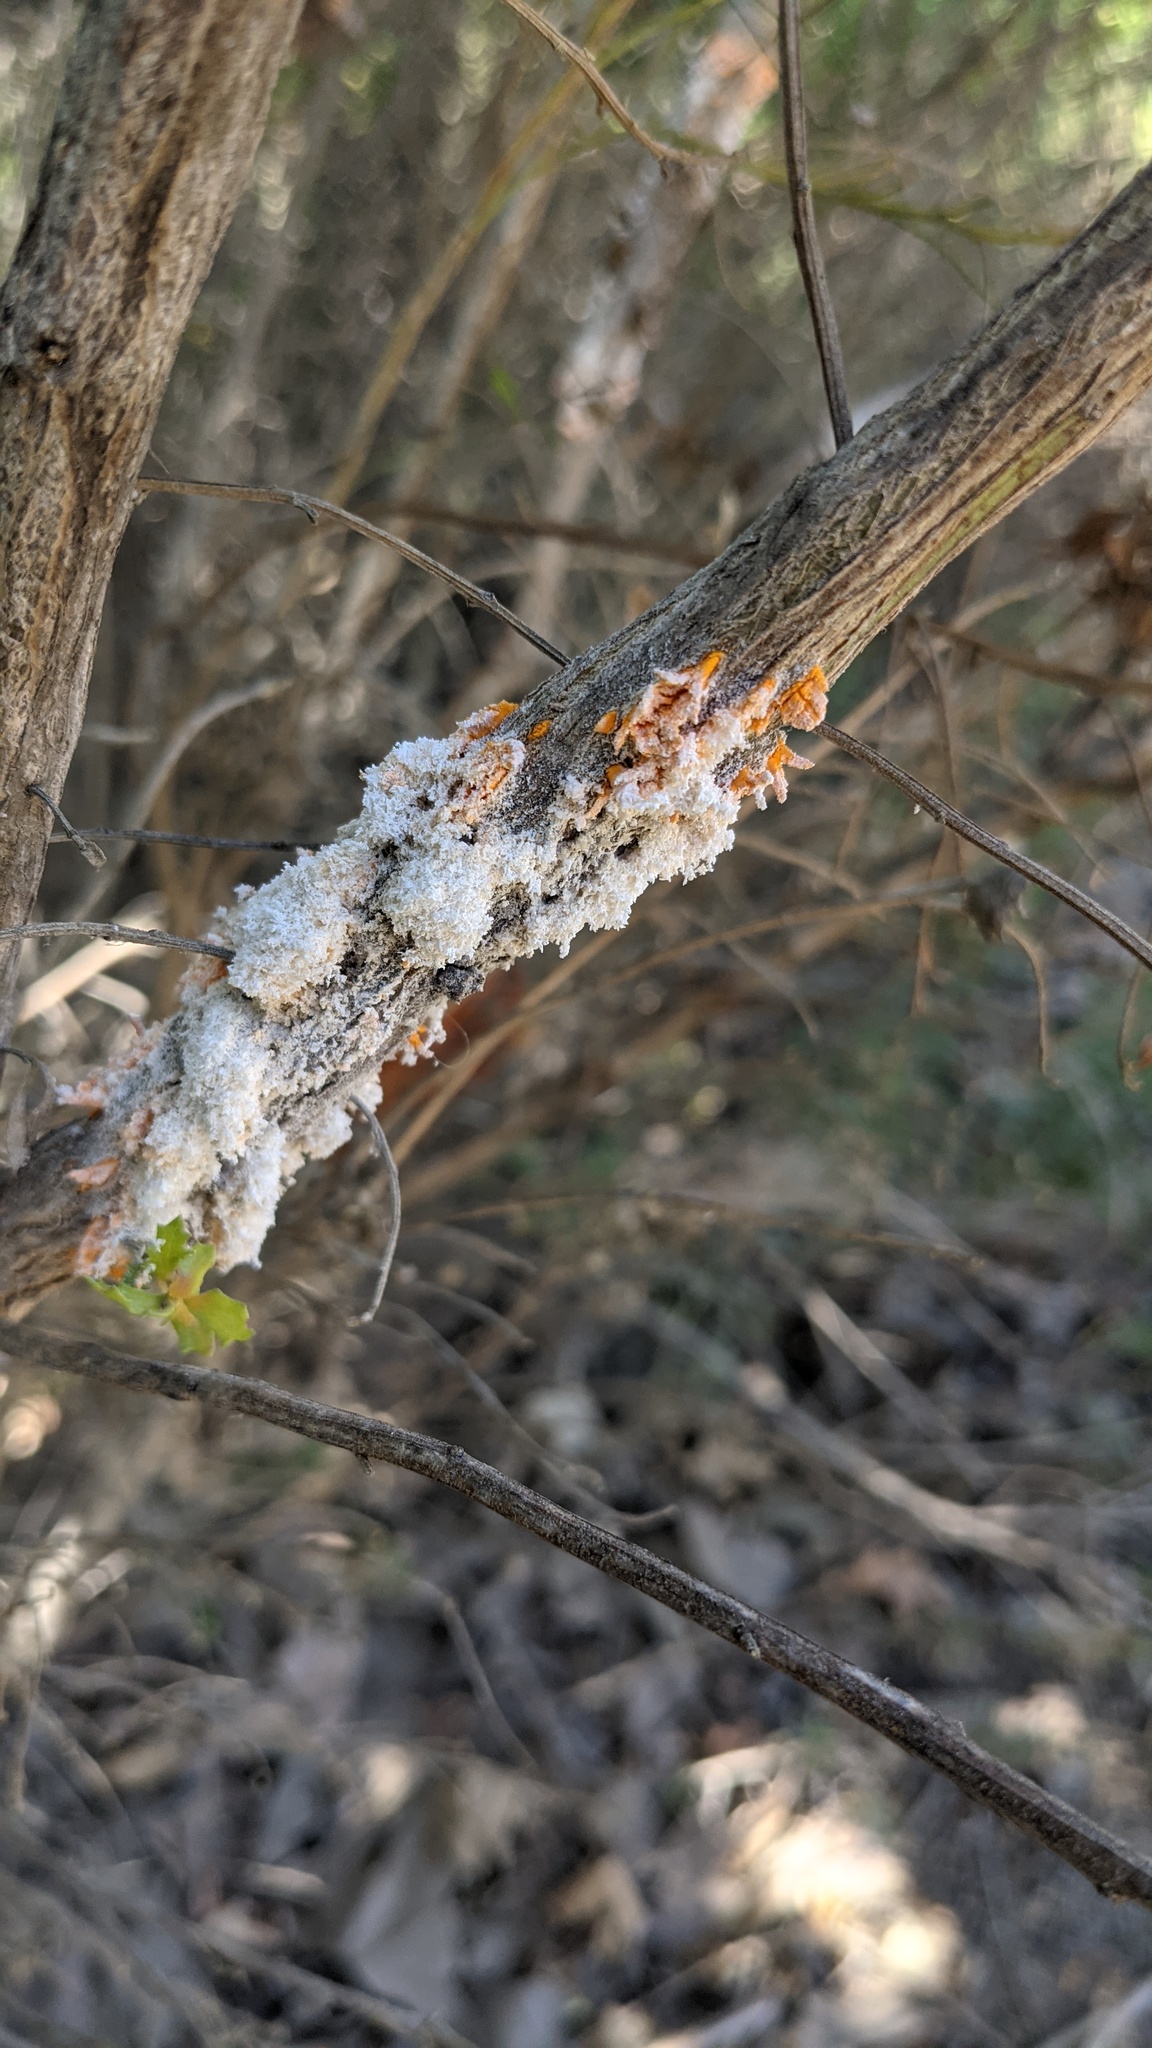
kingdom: Fungi
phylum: Basidiomycota
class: Pucciniomycetes
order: Pucciniales
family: Pucciniaceae
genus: Eriosporangium
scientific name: Eriosporangium evadens
